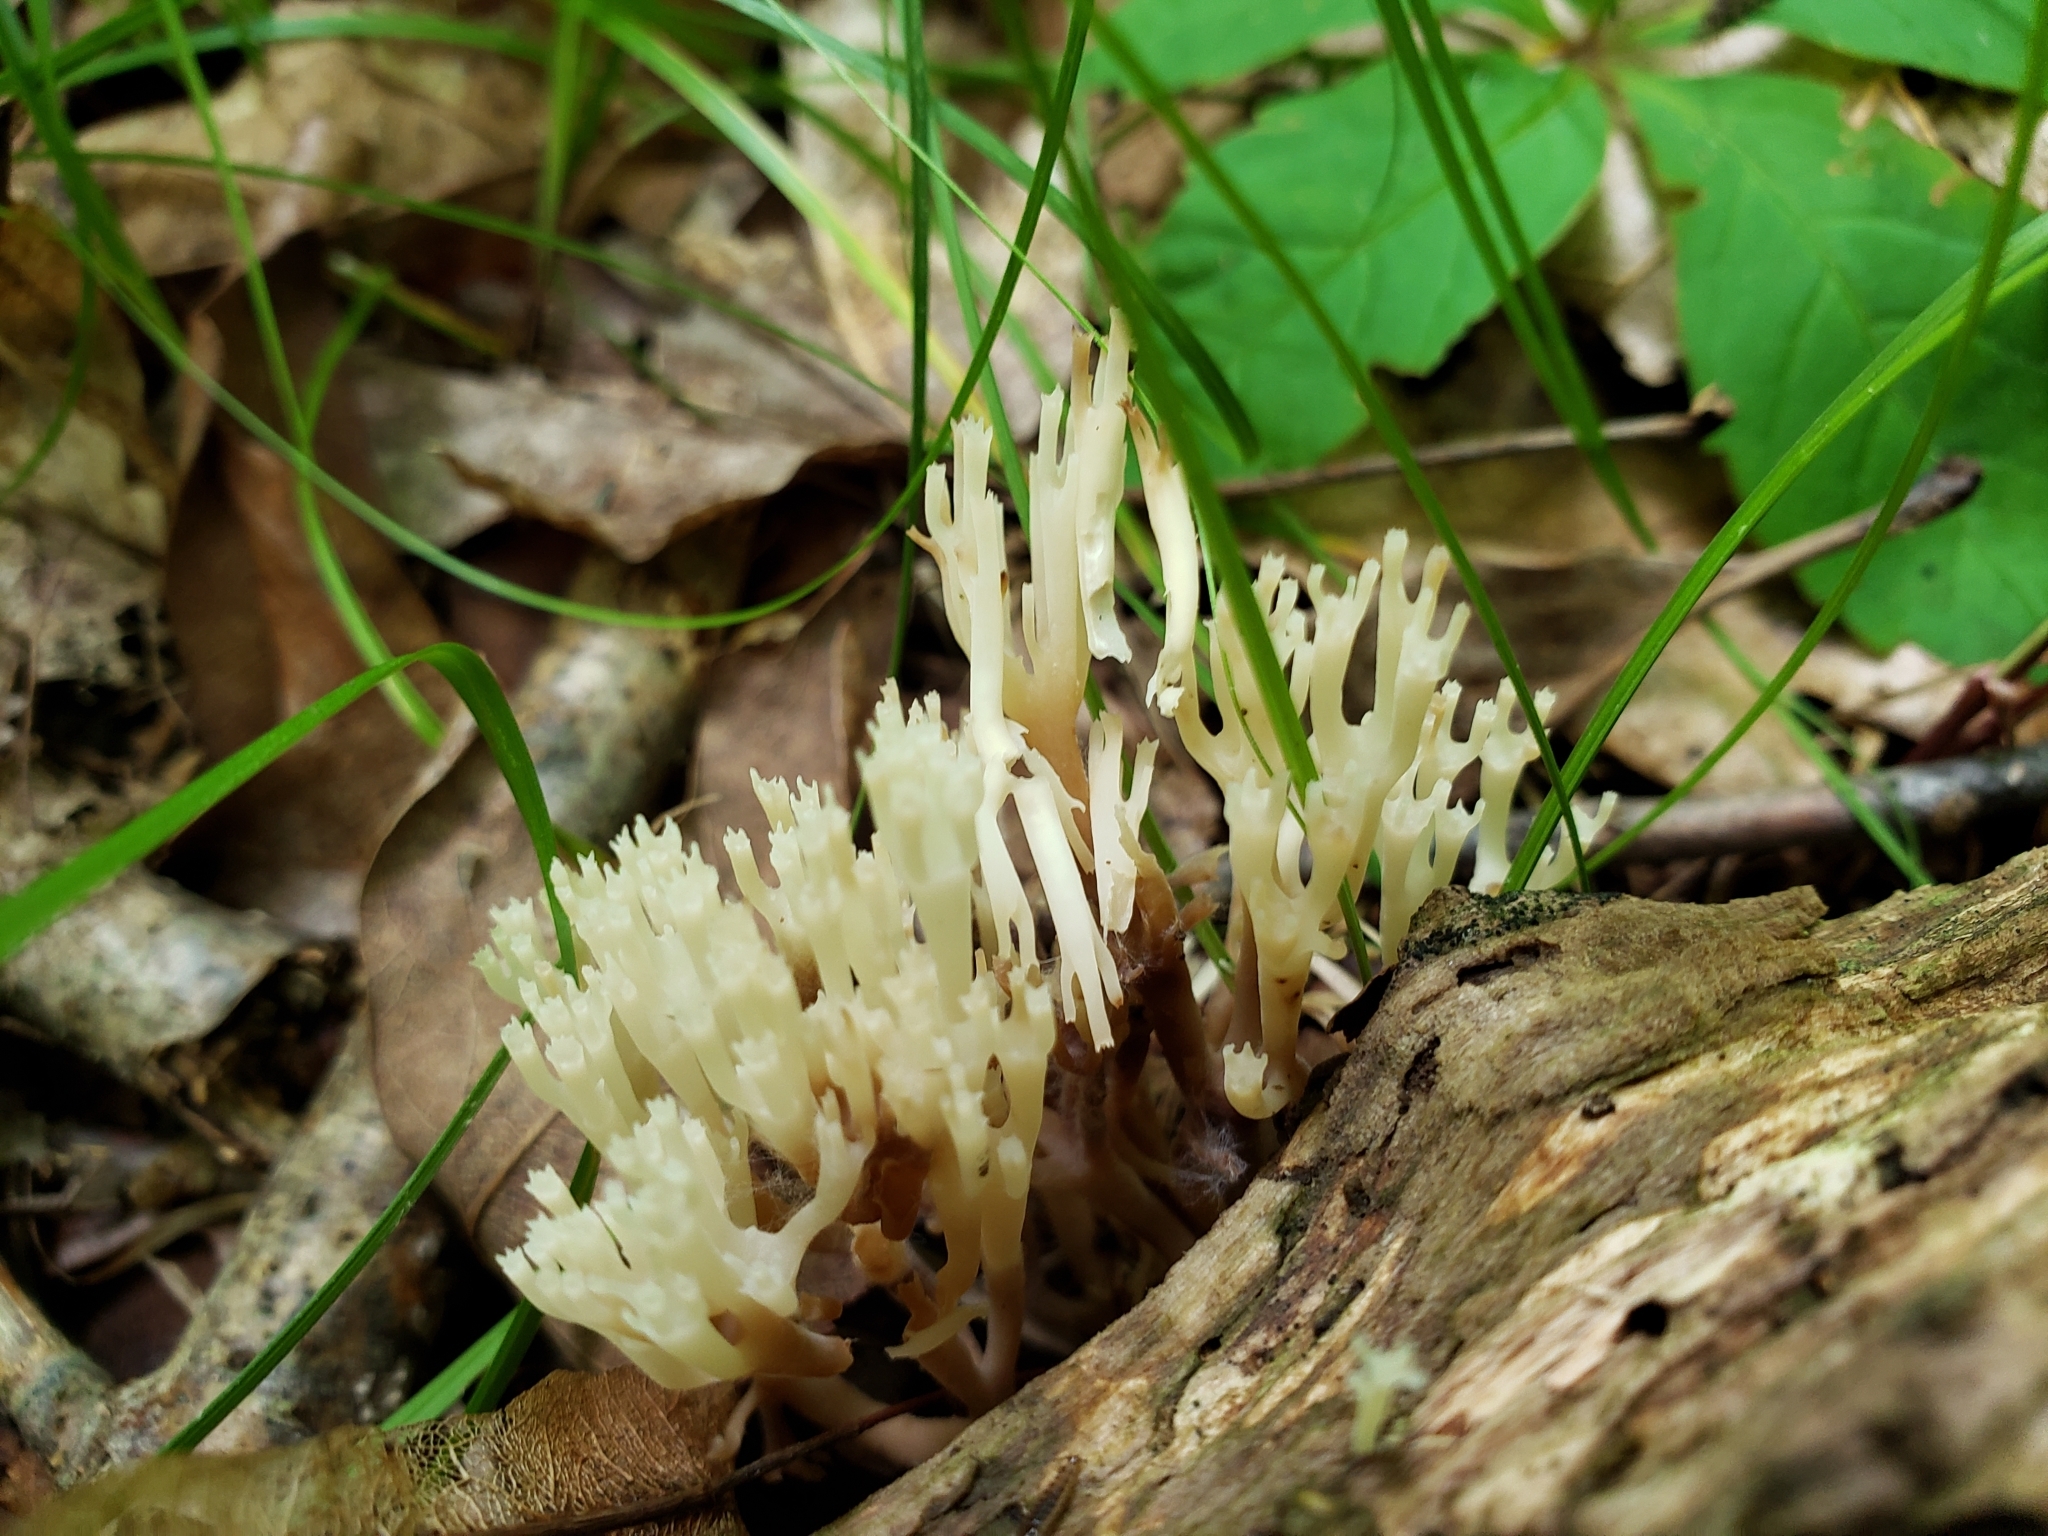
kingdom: Fungi
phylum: Basidiomycota
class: Agaricomycetes
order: Russulales
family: Auriscalpiaceae
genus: Artomyces
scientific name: Artomyces pyxidatus
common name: Crown-tipped coral fungus
